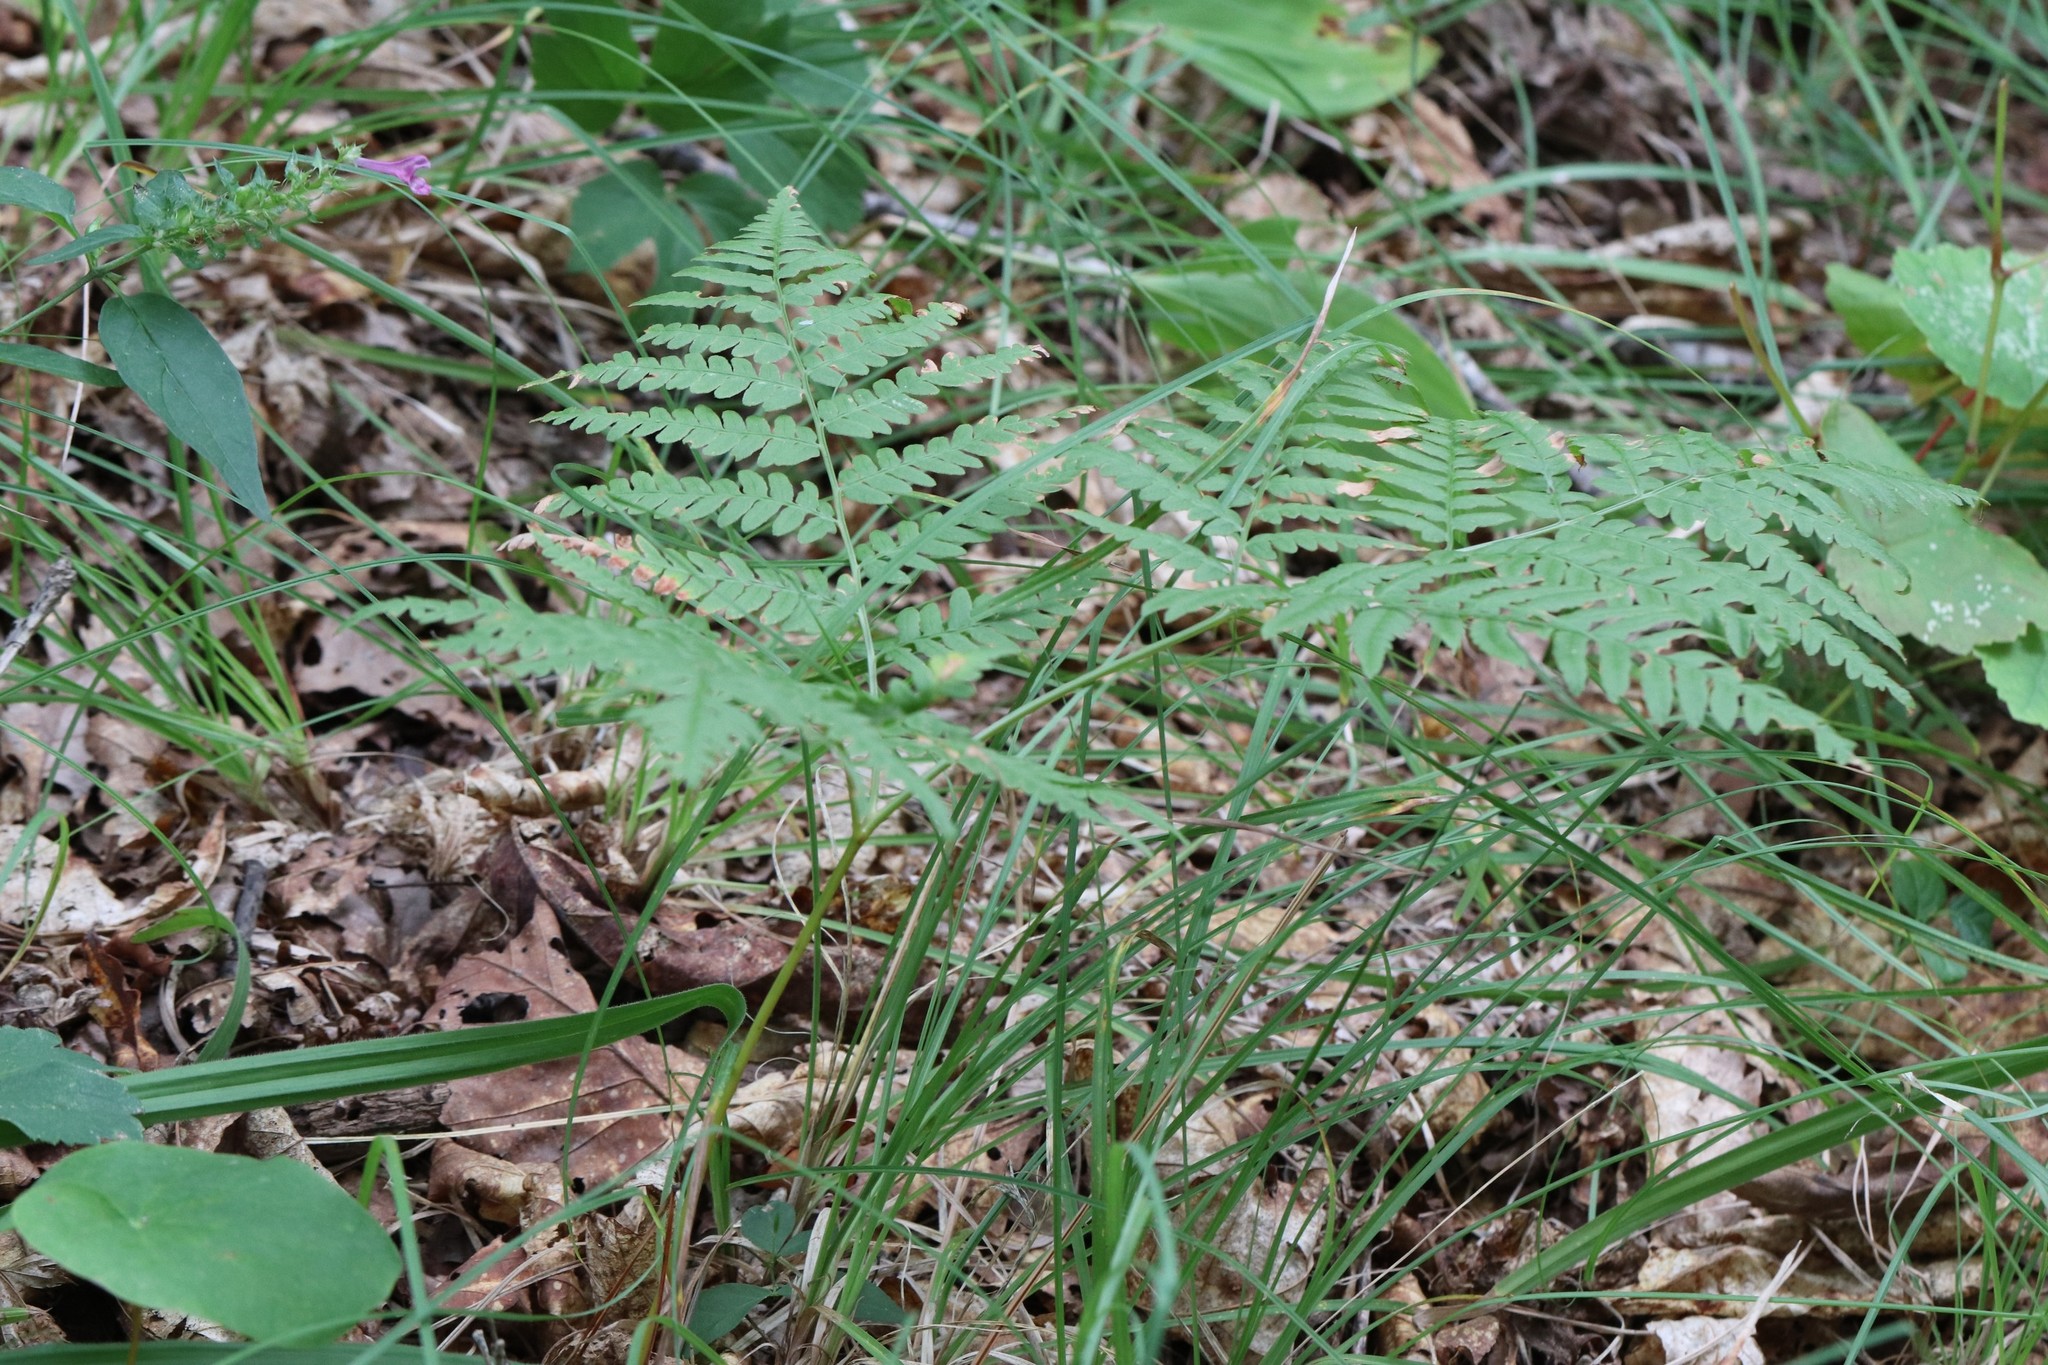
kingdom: Plantae
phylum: Tracheophyta
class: Polypodiopsida
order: Polypodiales
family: Dennstaedtiaceae
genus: Pteridium
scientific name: Pteridium aquilinum
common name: Bracken
